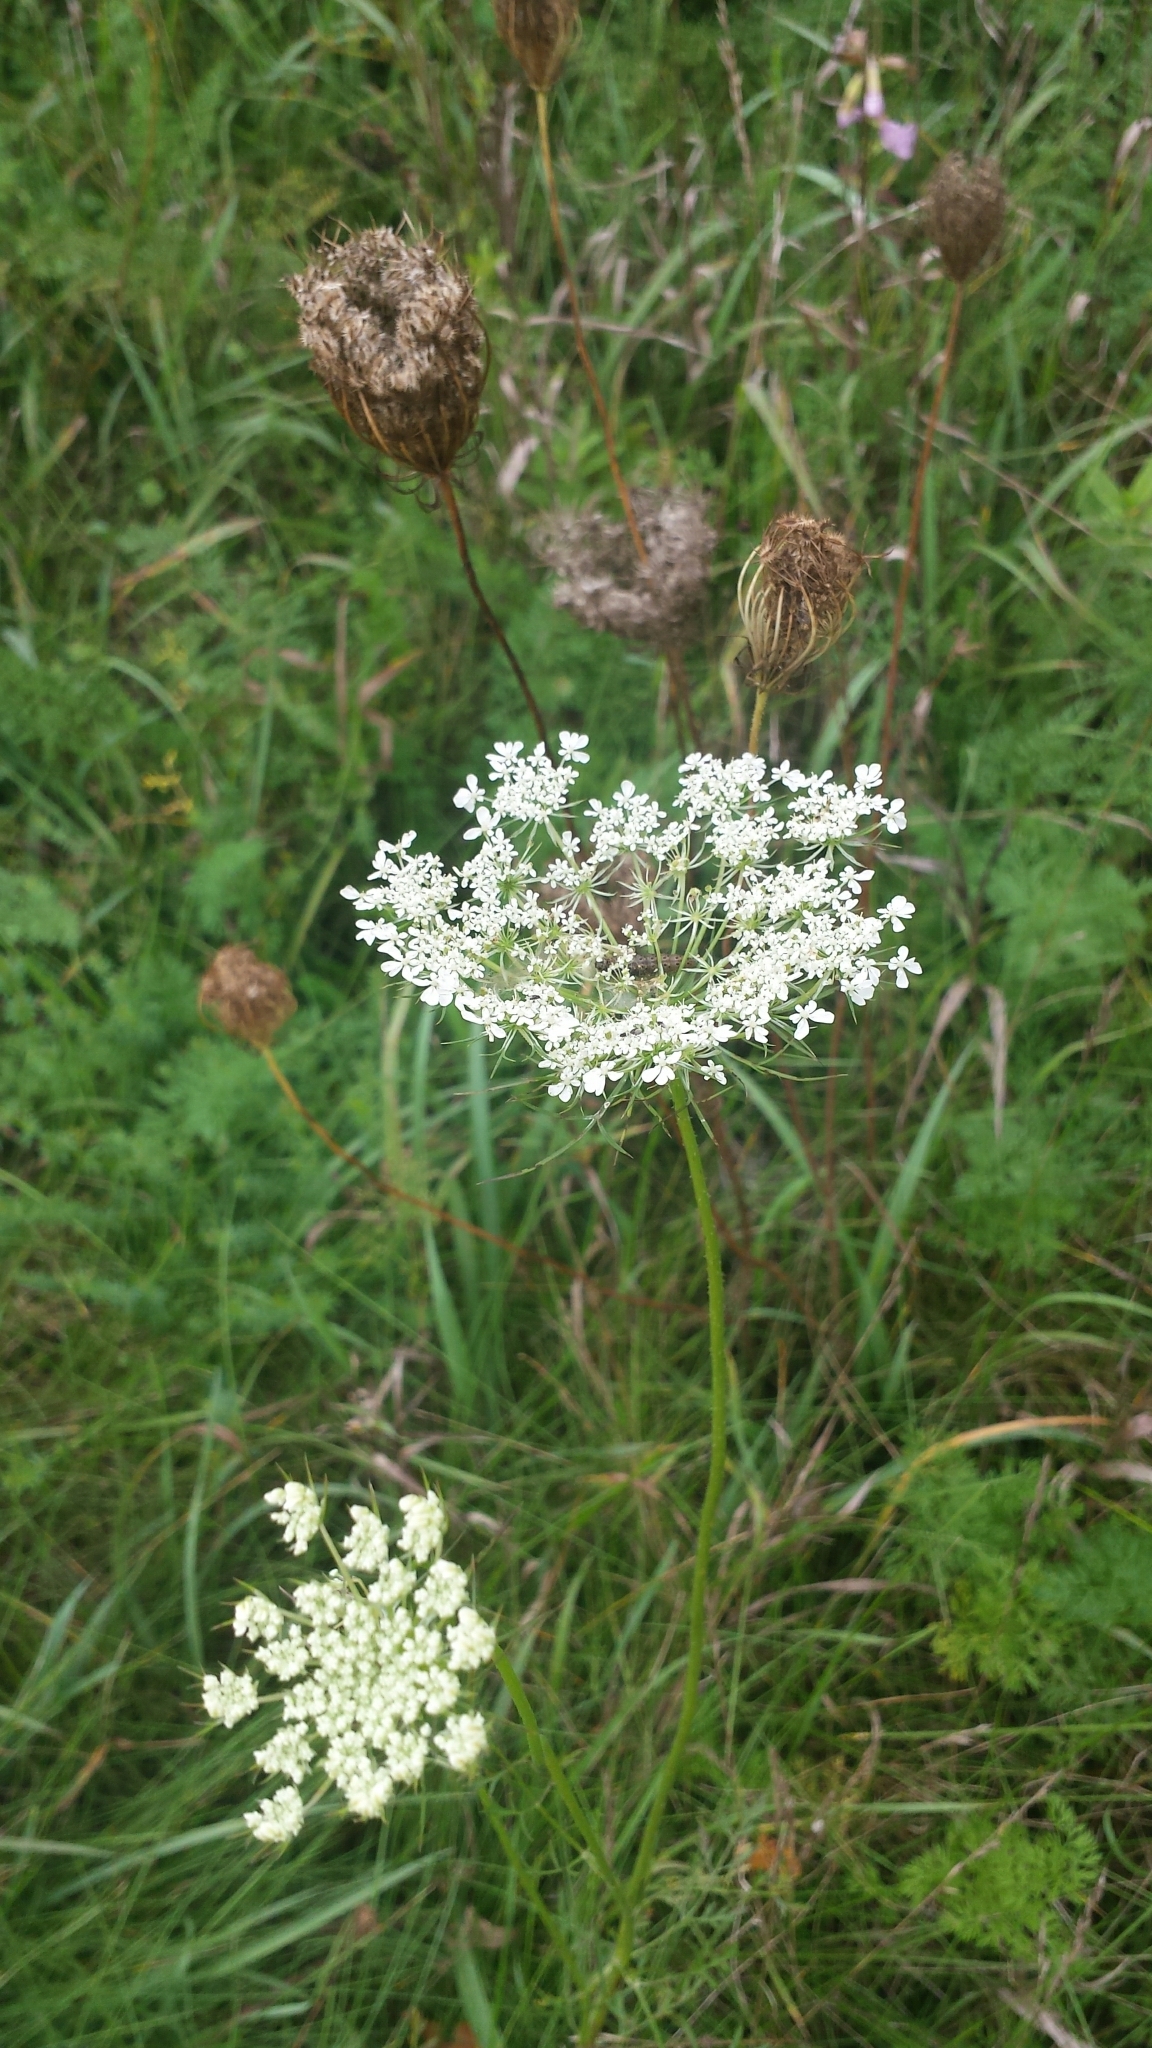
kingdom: Plantae
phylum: Tracheophyta
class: Magnoliopsida
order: Apiales
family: Apiaceae
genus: Daucus
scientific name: Daucus carota
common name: Wild carrot
